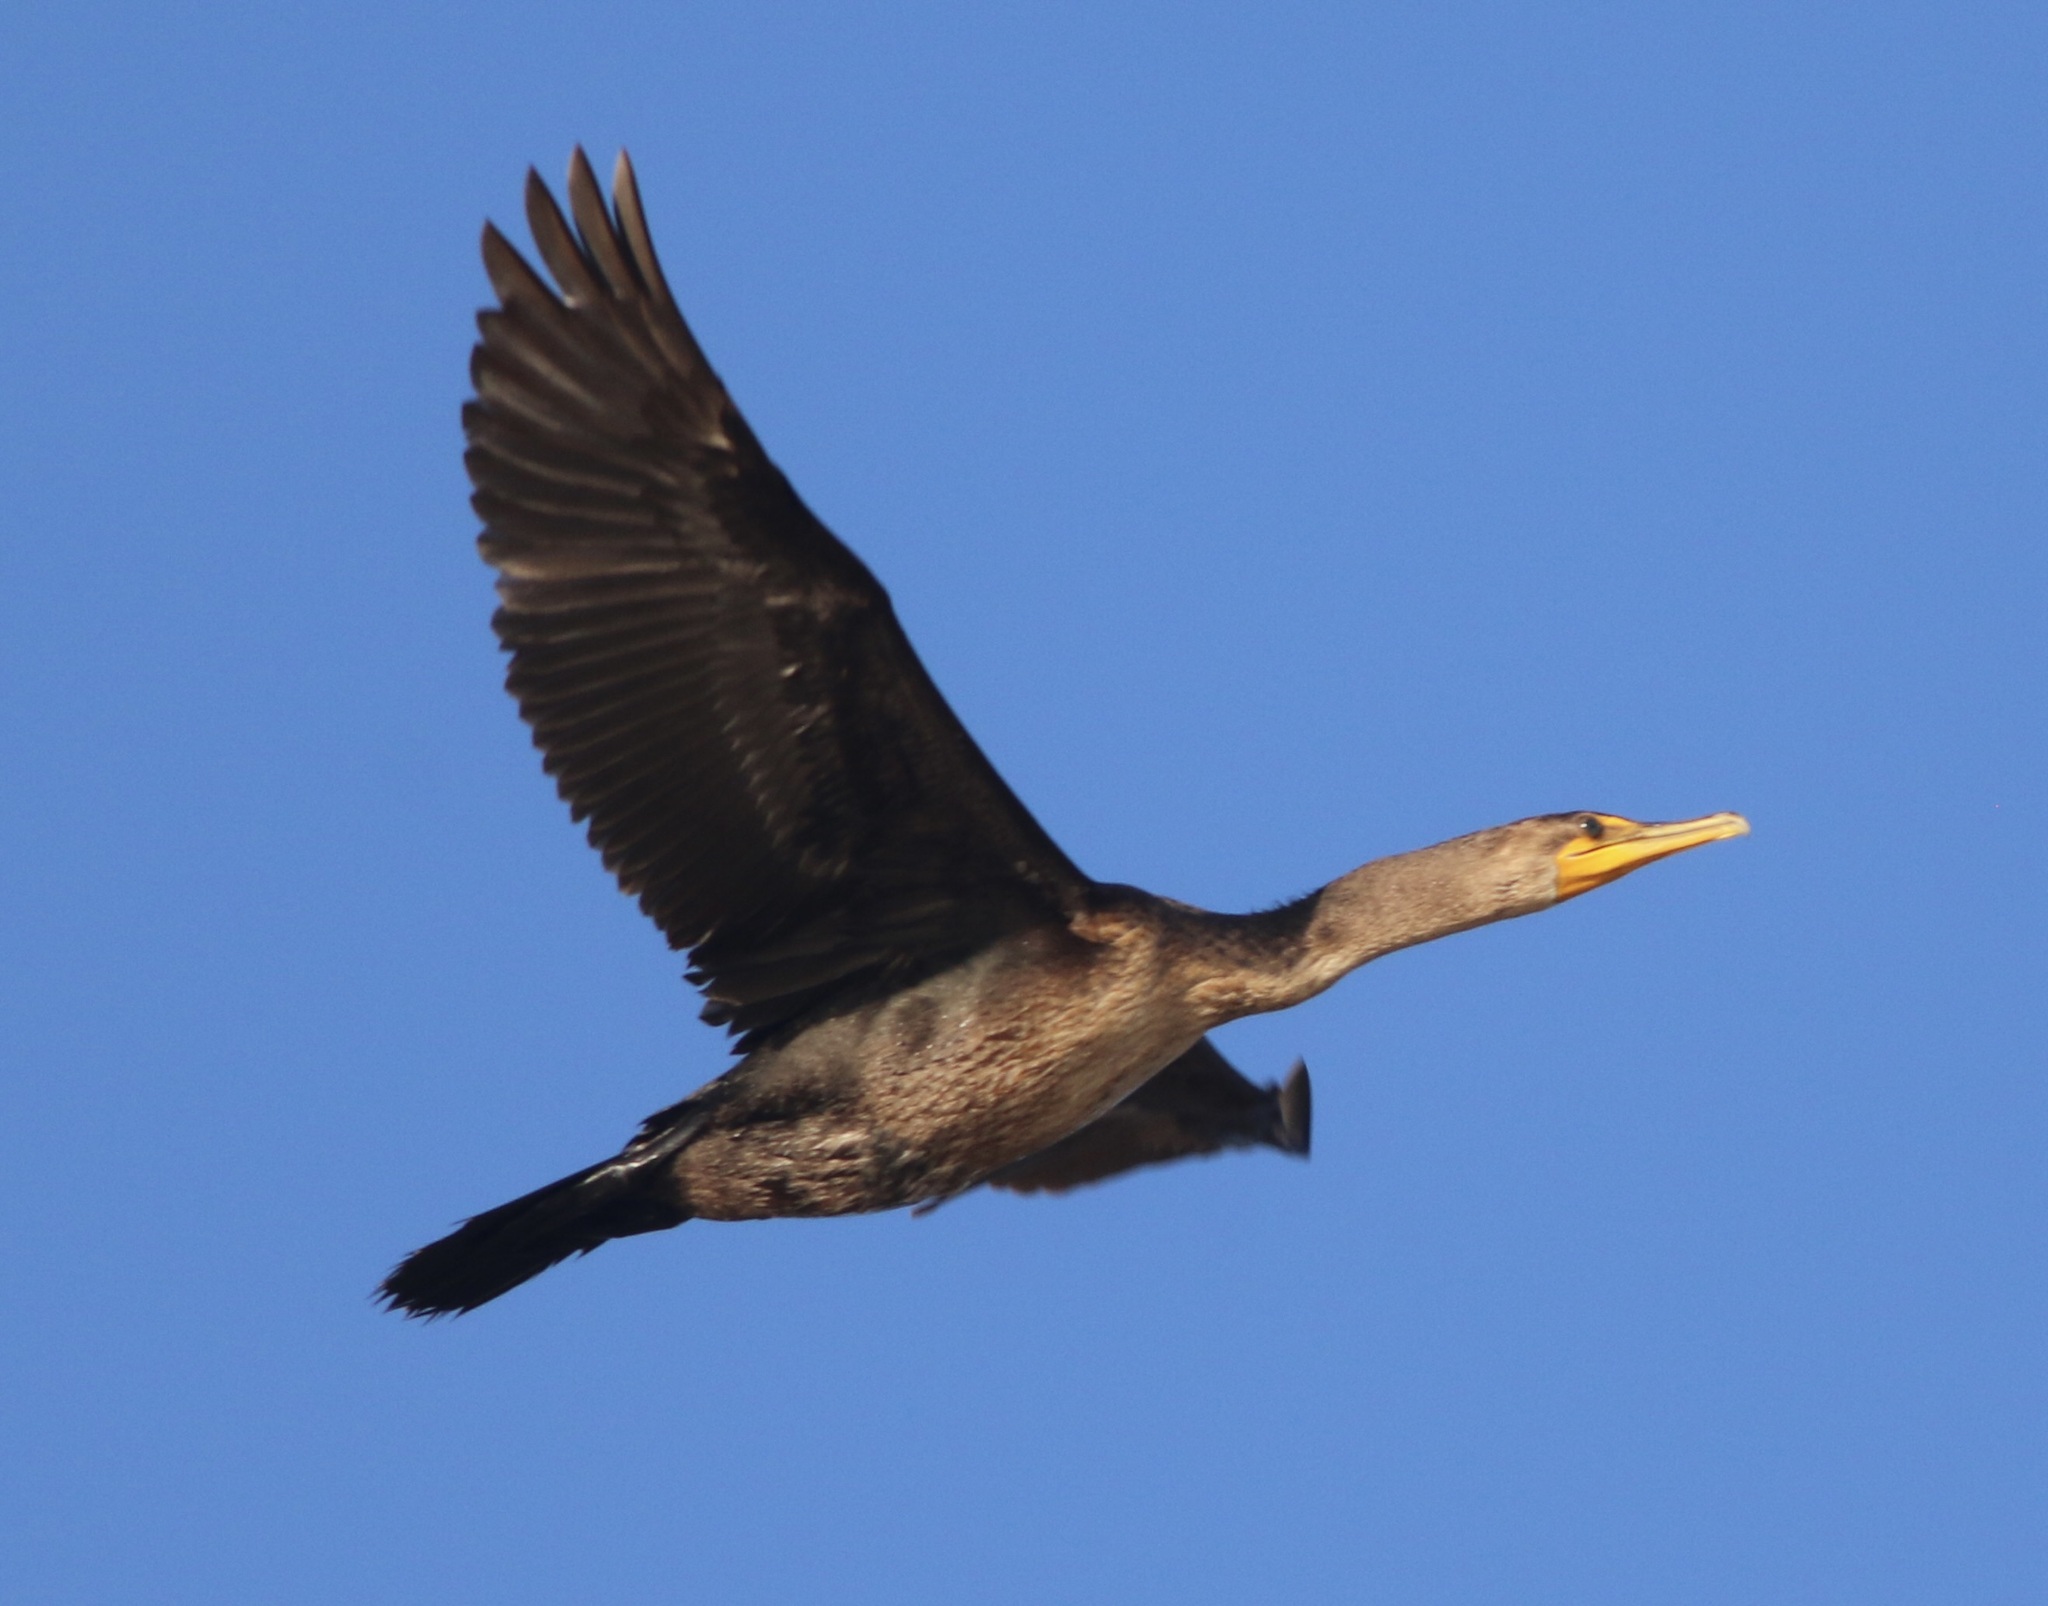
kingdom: Animalia
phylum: Chordata
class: Aves
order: Suliformes
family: Phalacrocoracidae
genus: Phalacrocorax
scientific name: Phalacrocorax auritus
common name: Double-crested cormorant
